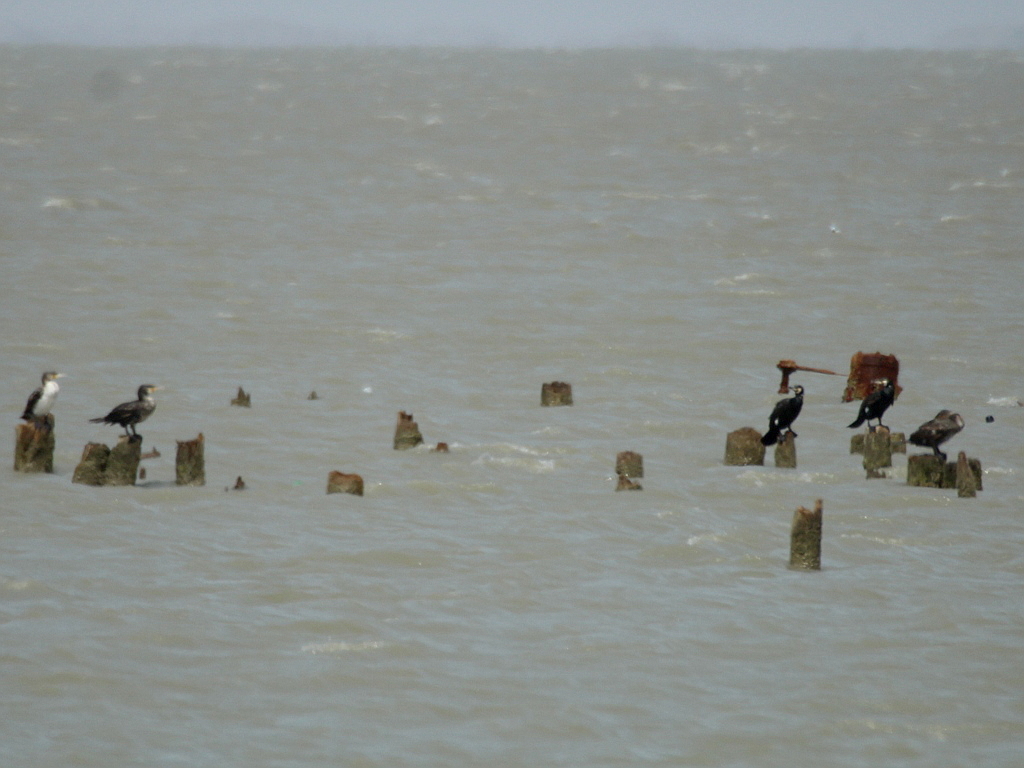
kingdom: Animalia
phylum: Chordata
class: Aves
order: Suliformes
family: Phalacrocoracidae
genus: Phalacrocorax
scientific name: Phalacrocorax carbo
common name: Great cormorant
